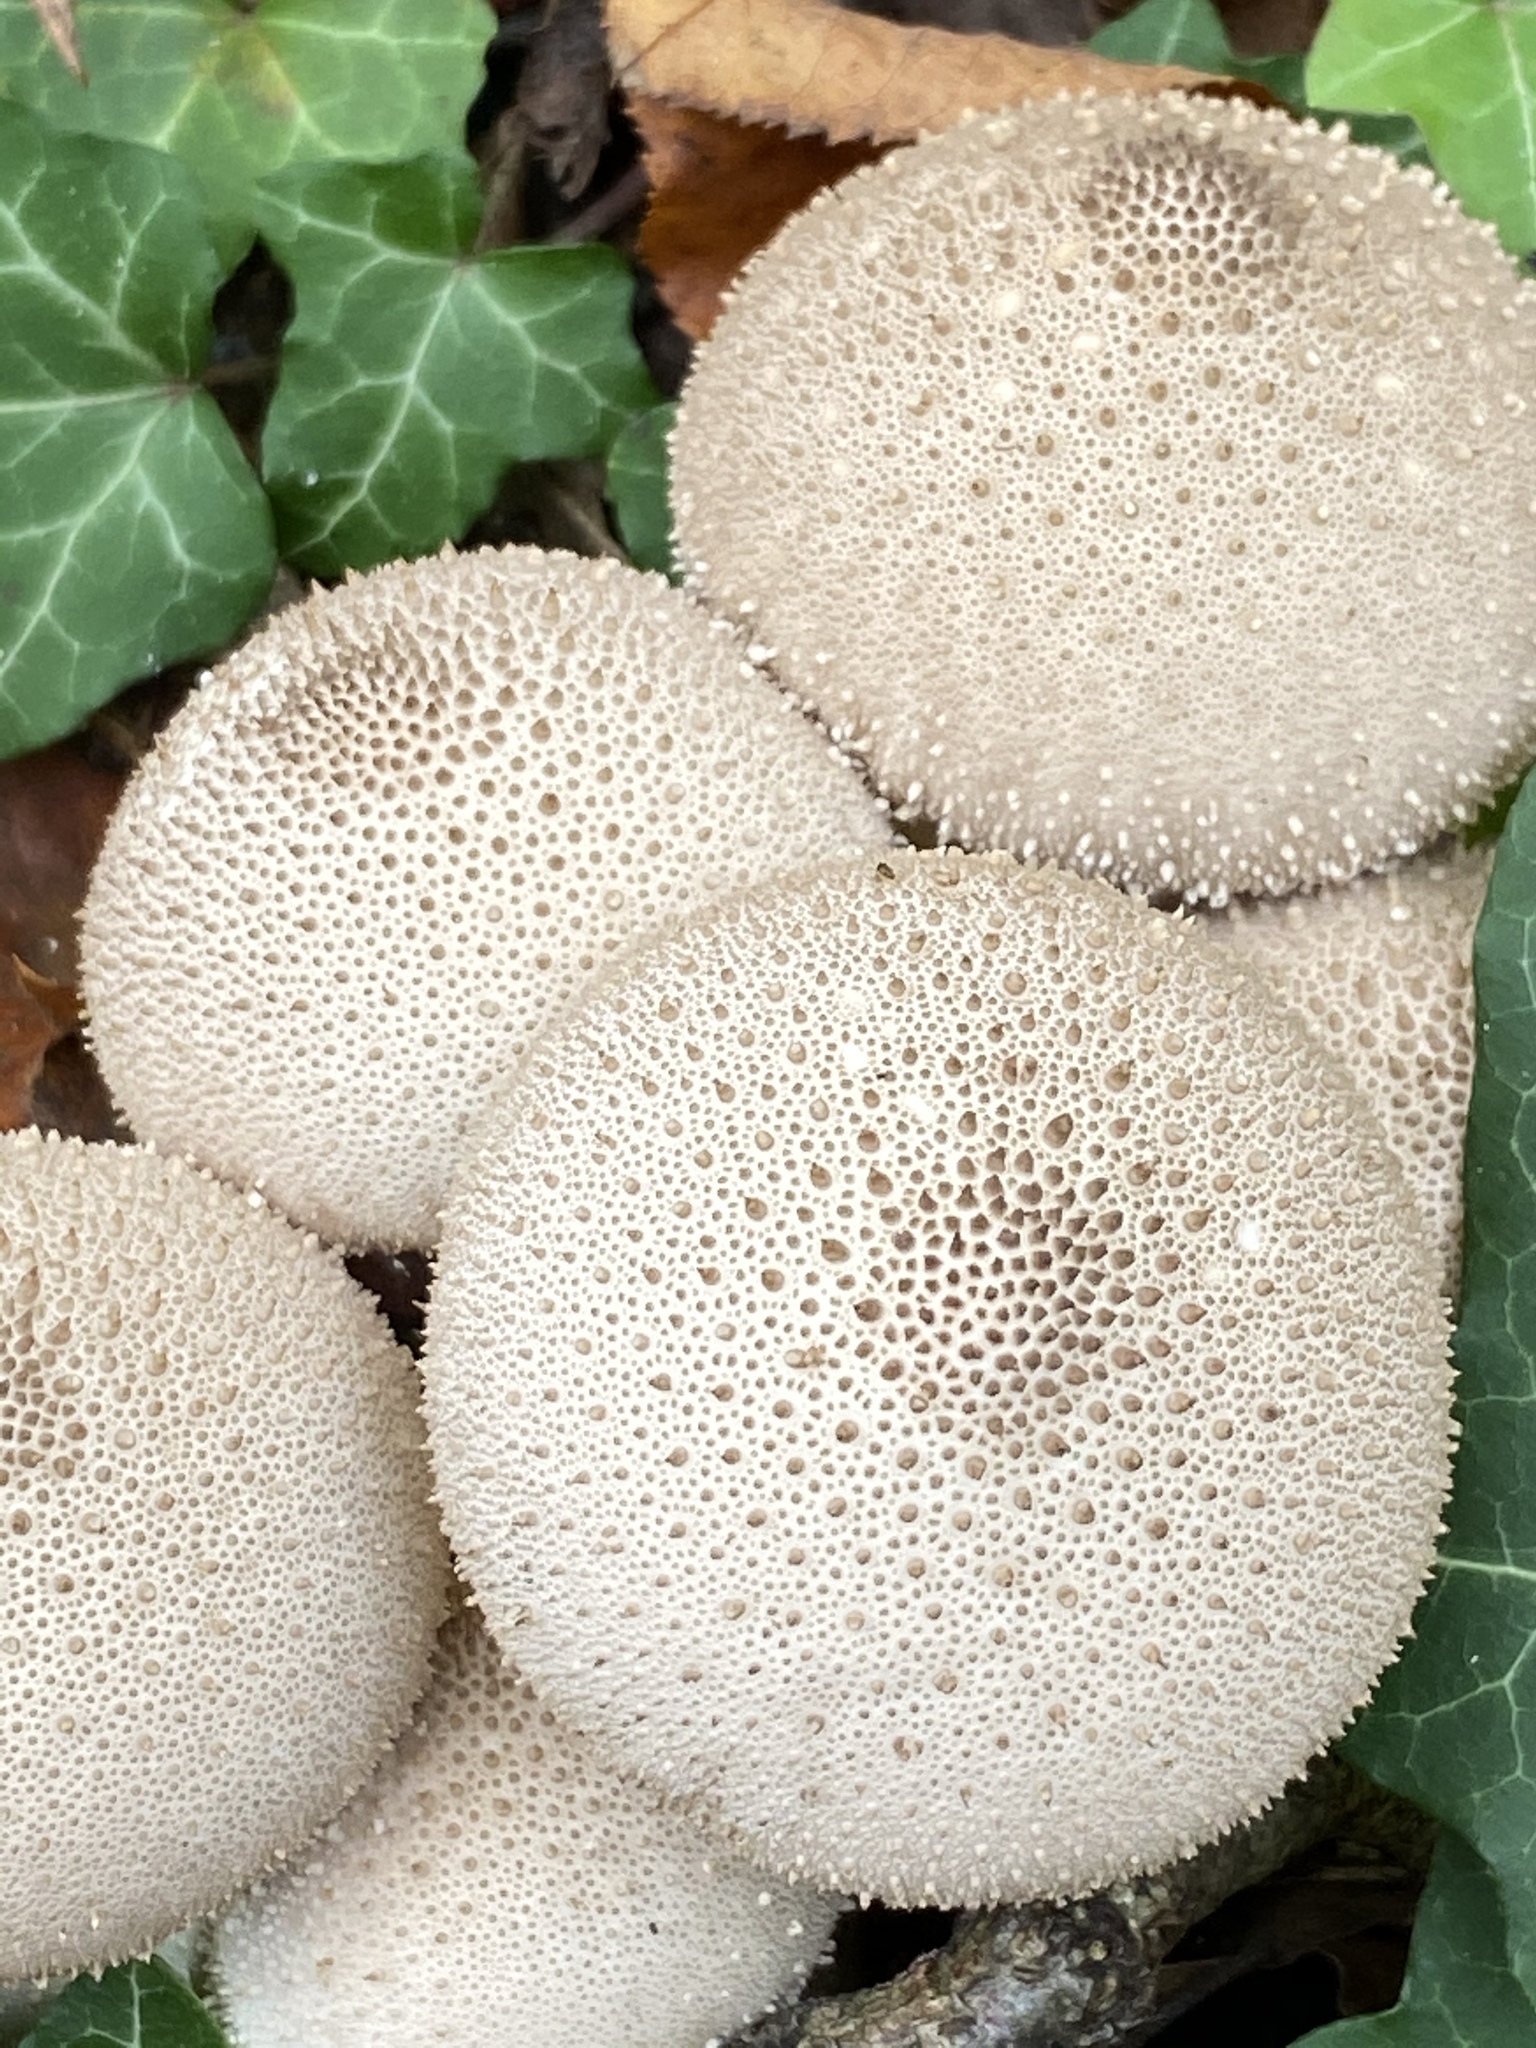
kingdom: Fungi
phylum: Basidiomycota
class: Agaricomycetes
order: Agaricales
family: Lycoperdaceae
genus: Lycoperdon
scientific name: Lycoperdon perlatum
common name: Common puffball
